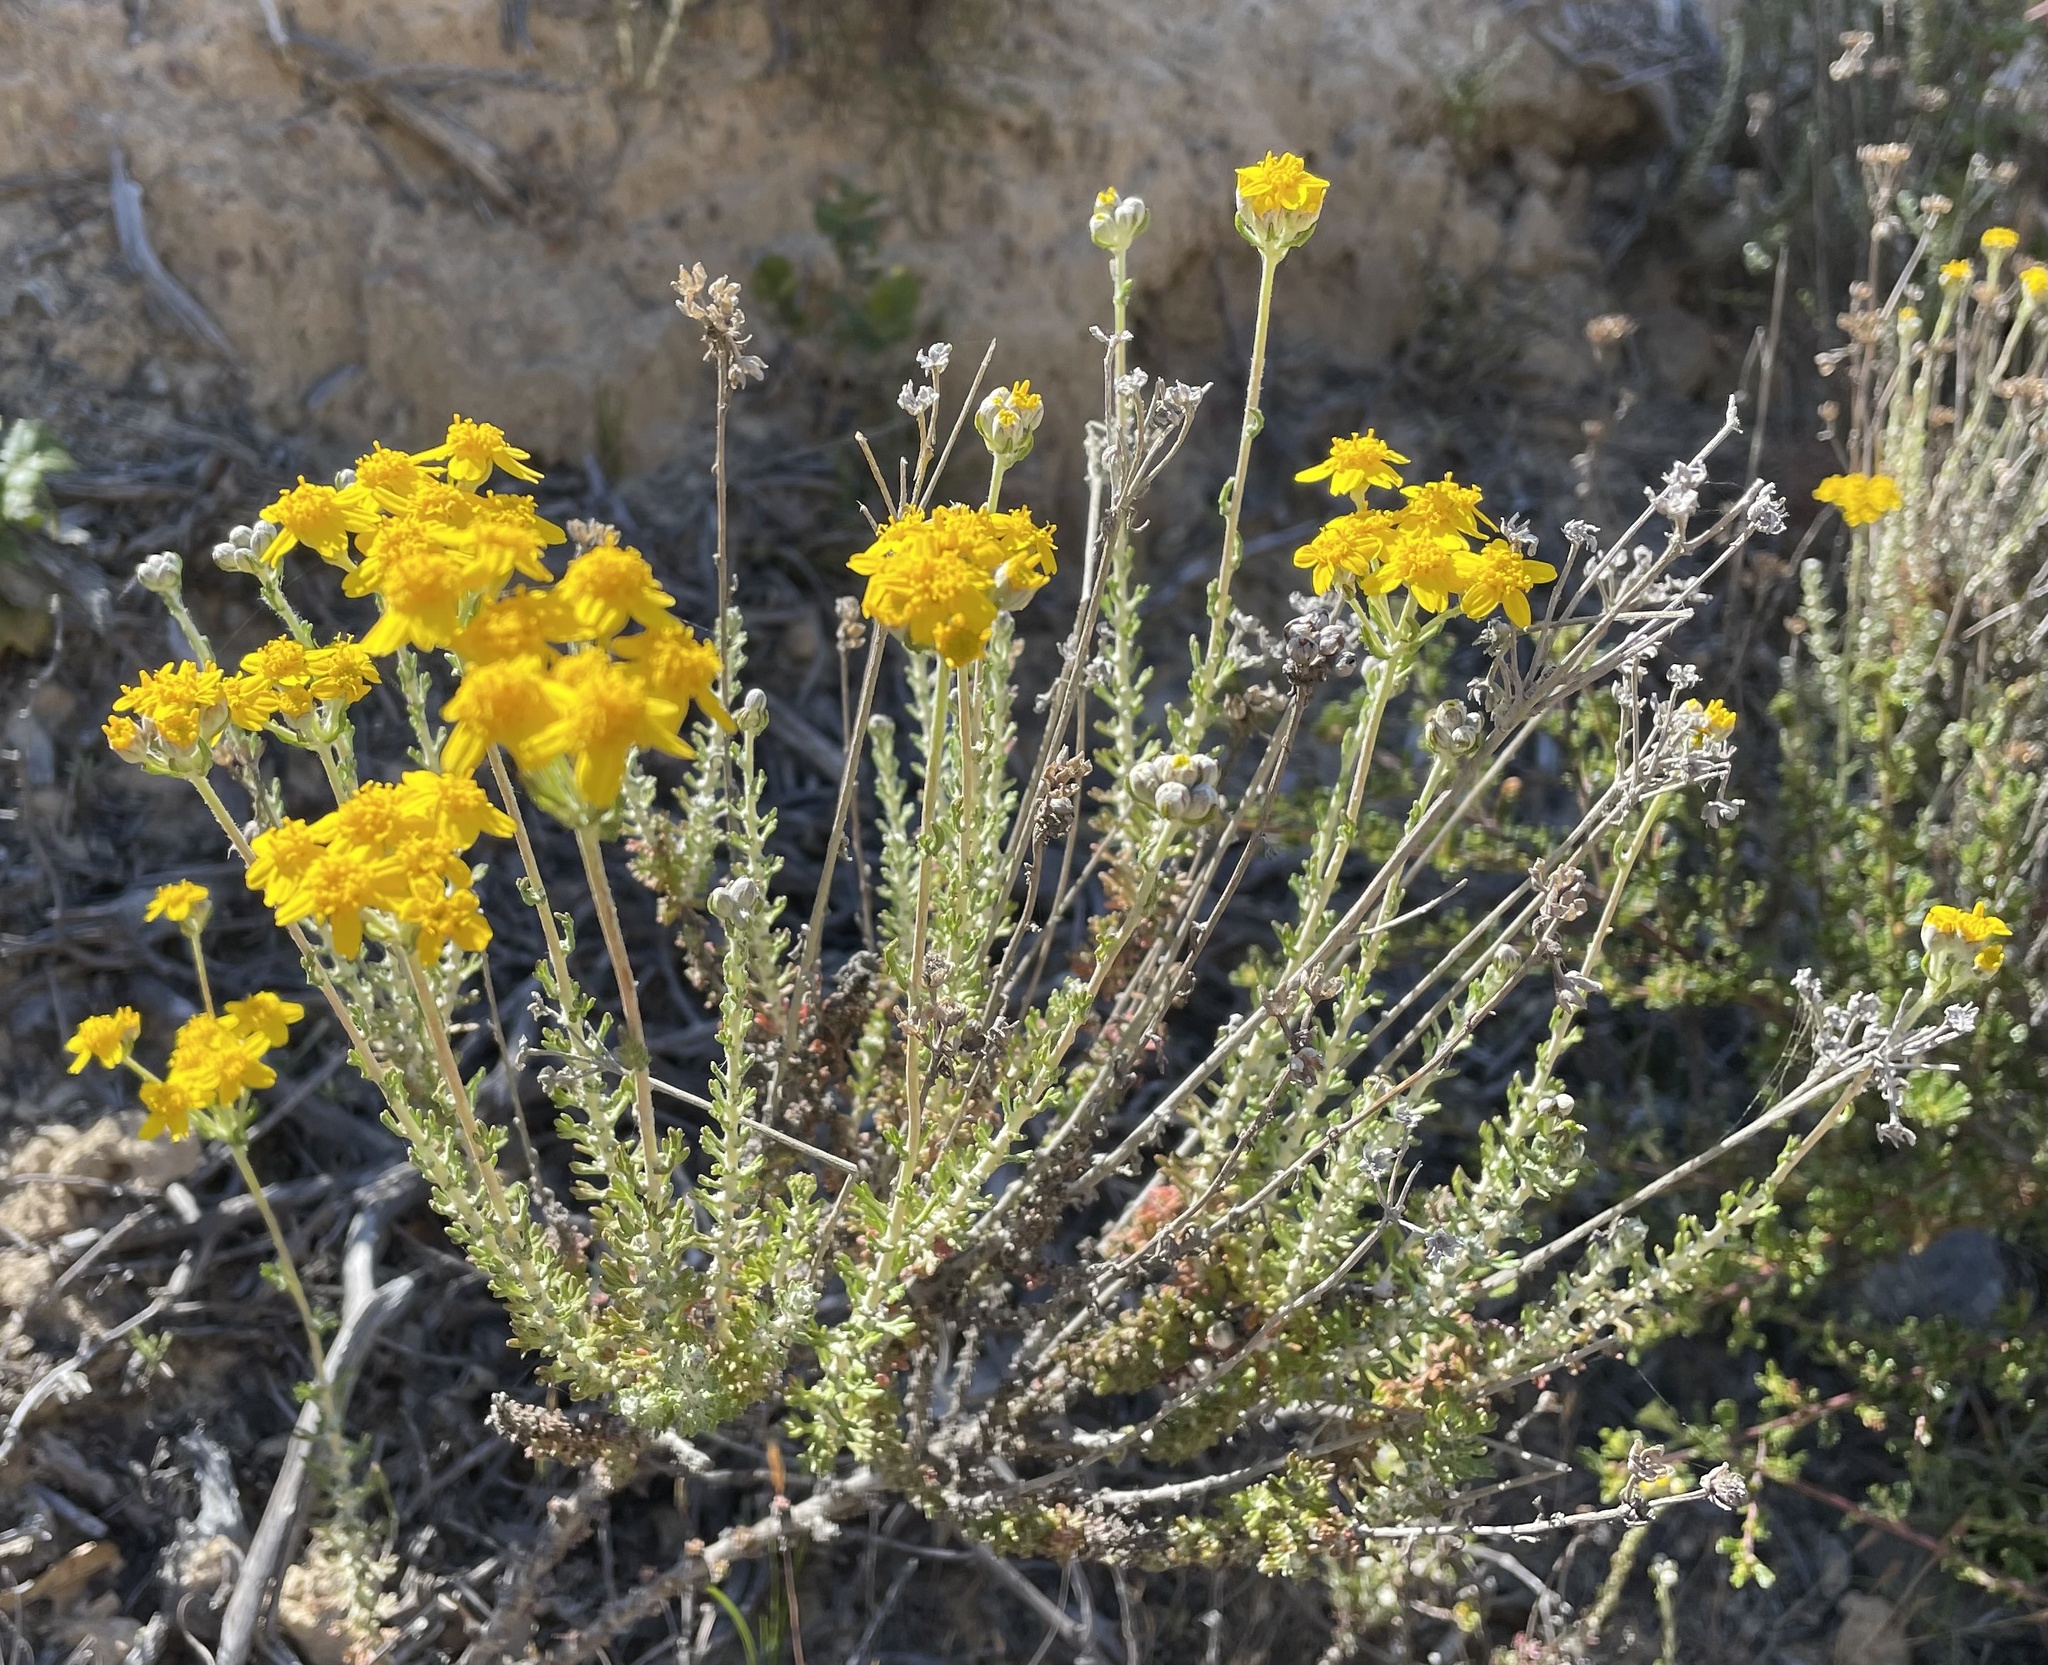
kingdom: Plantae
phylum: Tracheophyta
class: Magnoliopsida
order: Asterales
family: Asteraceae
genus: Eriophyllum
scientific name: Eriophyllum confertiflorum
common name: Golden-yarrow
